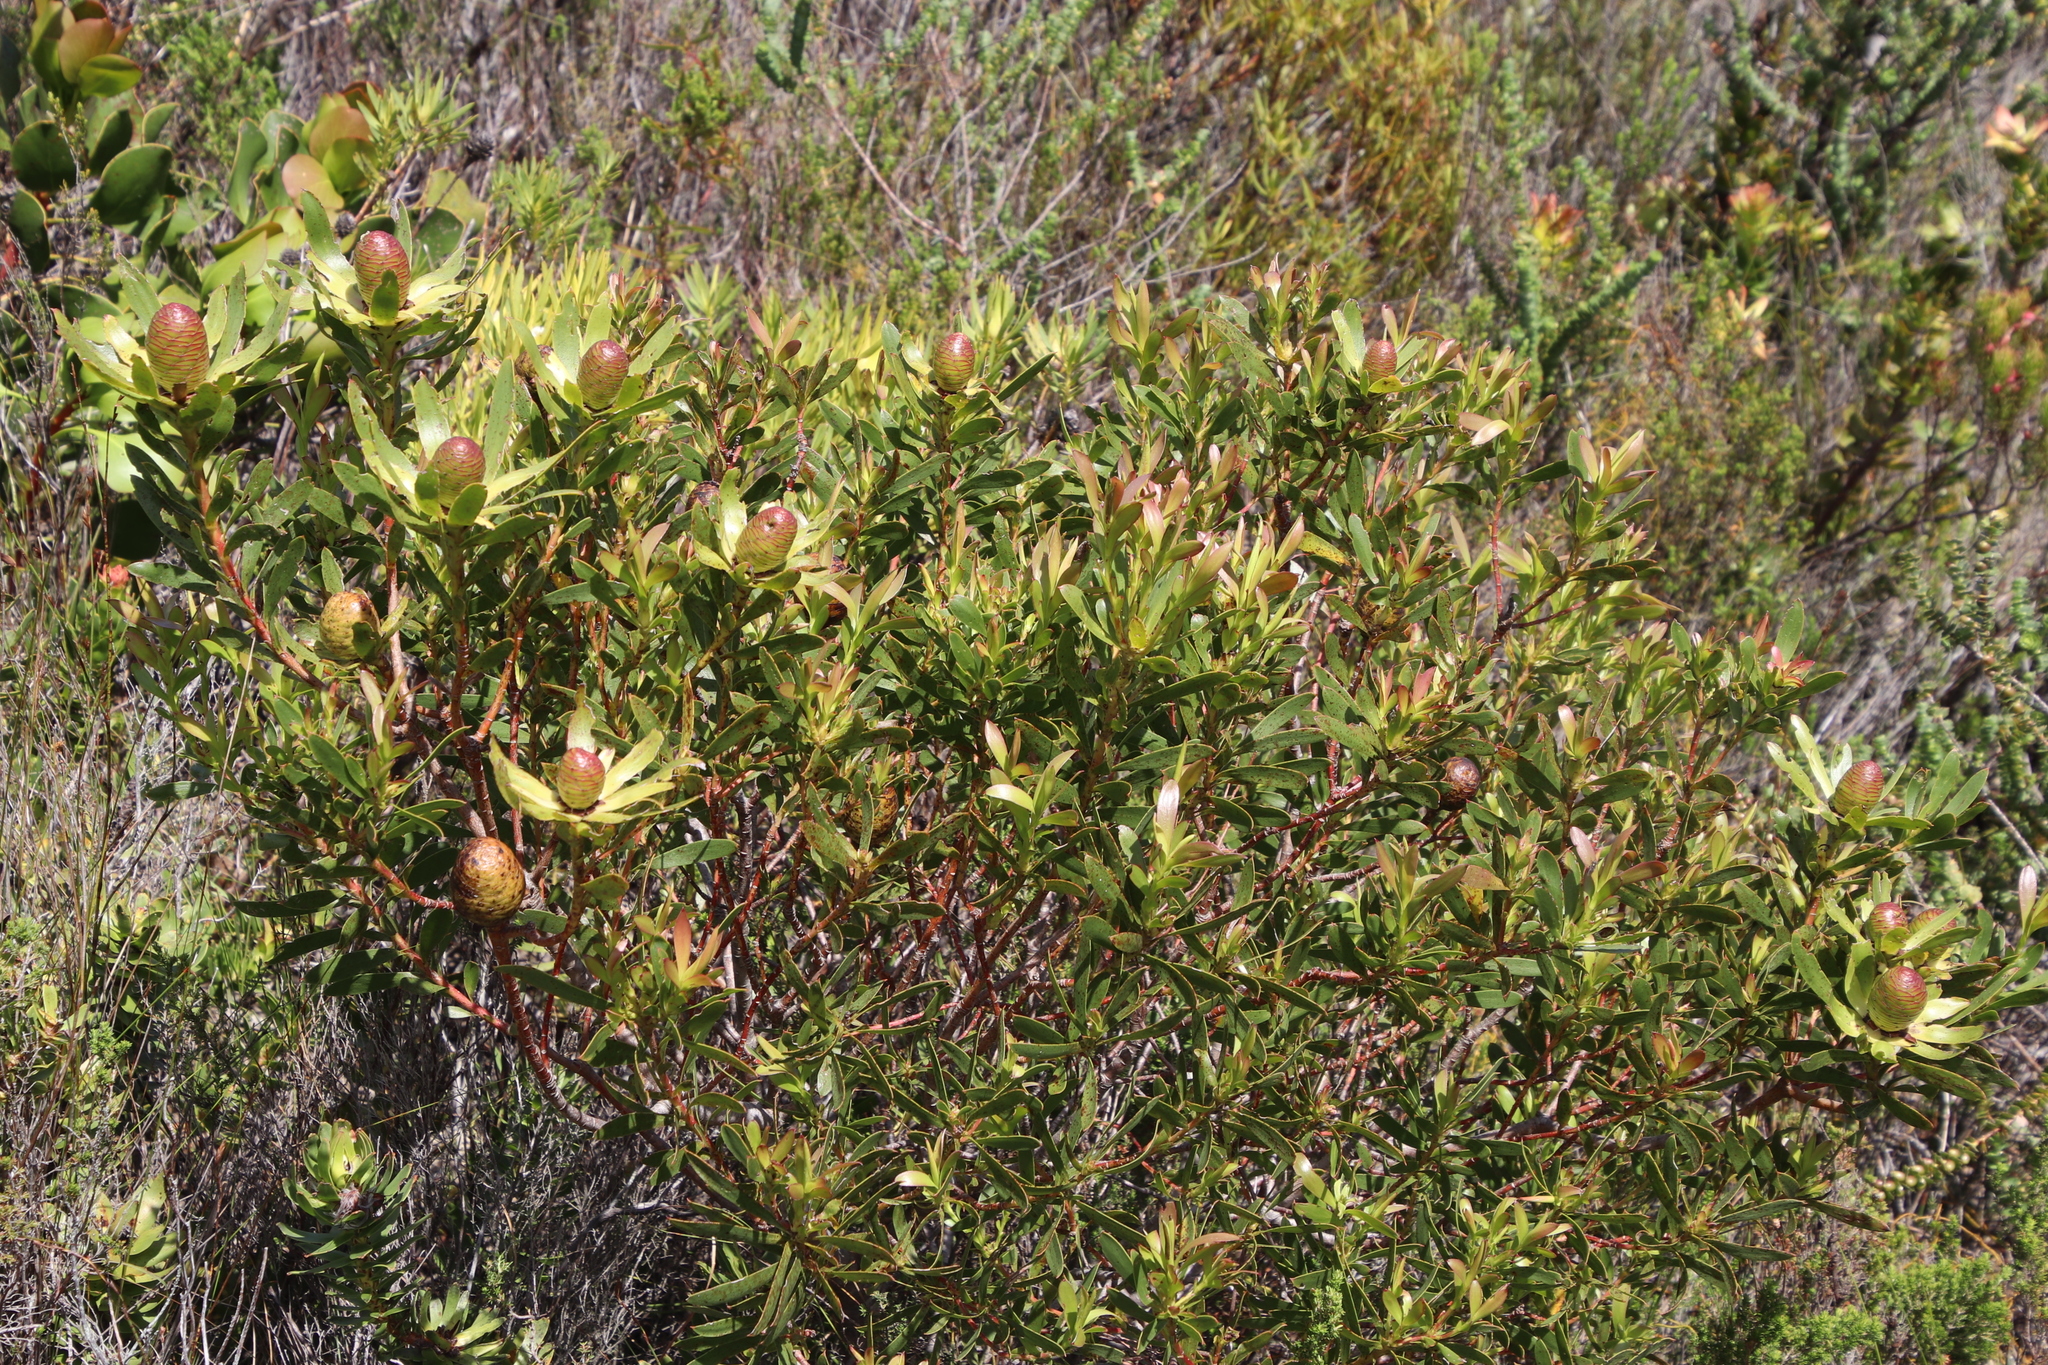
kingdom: Plantae
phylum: Tracheophyta
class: Magnoliopsida
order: Proteales
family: Proteaceae
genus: Leucadendron
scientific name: Leucadendron spissifolium
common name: Spear-leaf conebush
